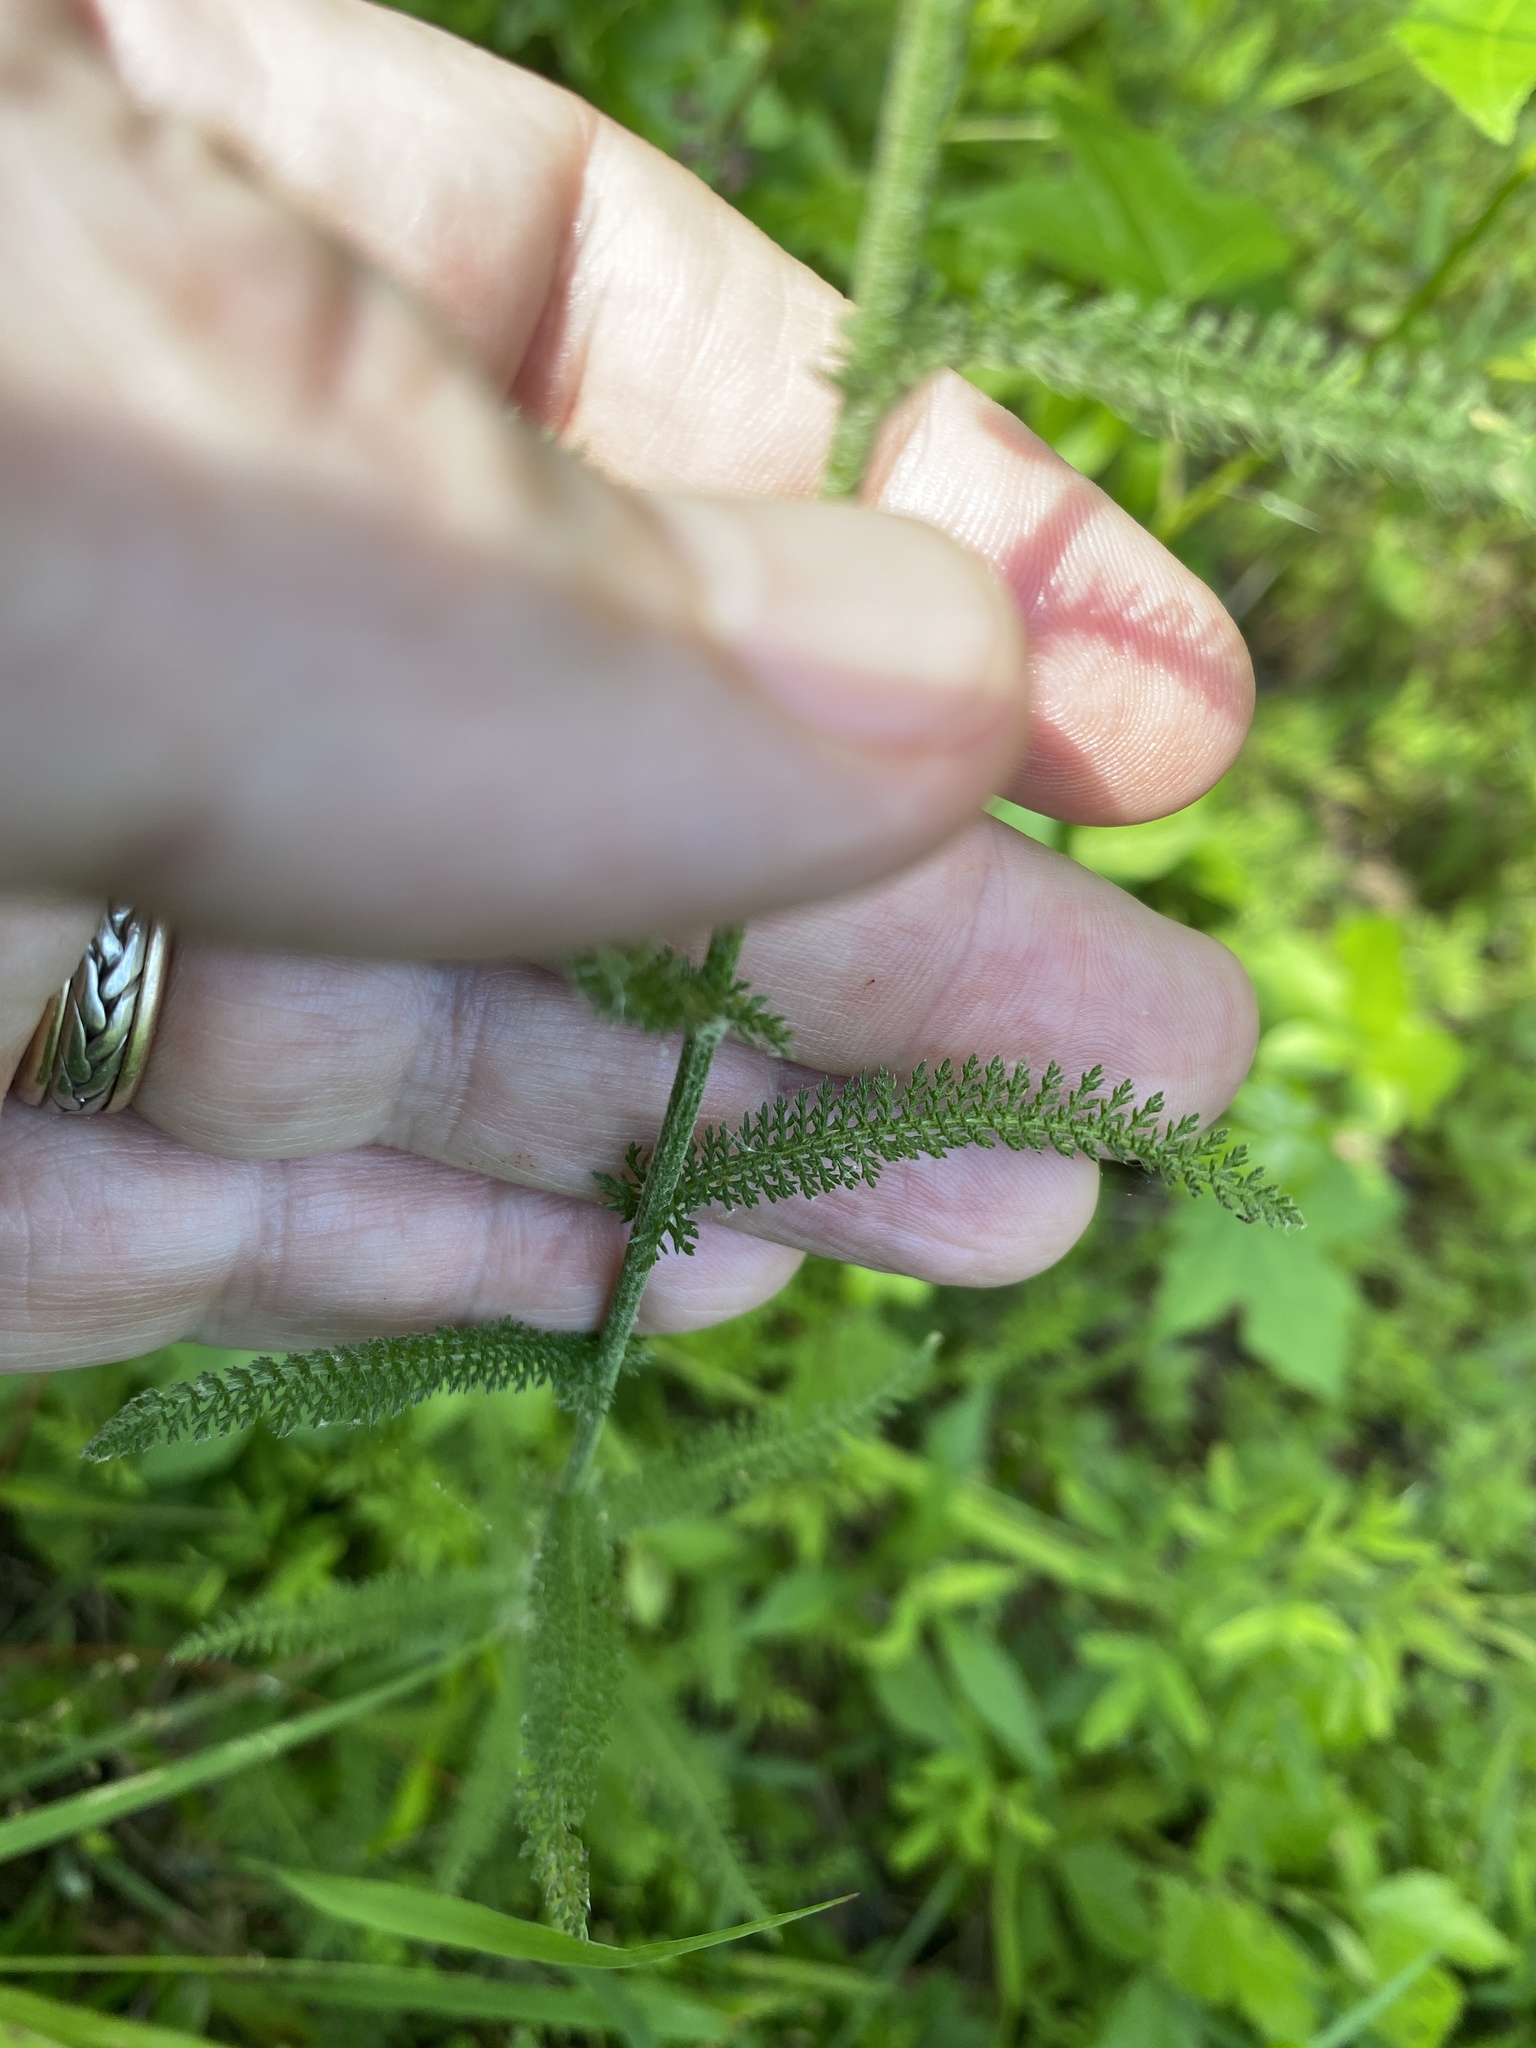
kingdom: Plantae
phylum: Tracheophyta
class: Magnoliopsida
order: Asterales
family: Asteraceae
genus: Achillea
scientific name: Achillea millefolium
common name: Yarrow
